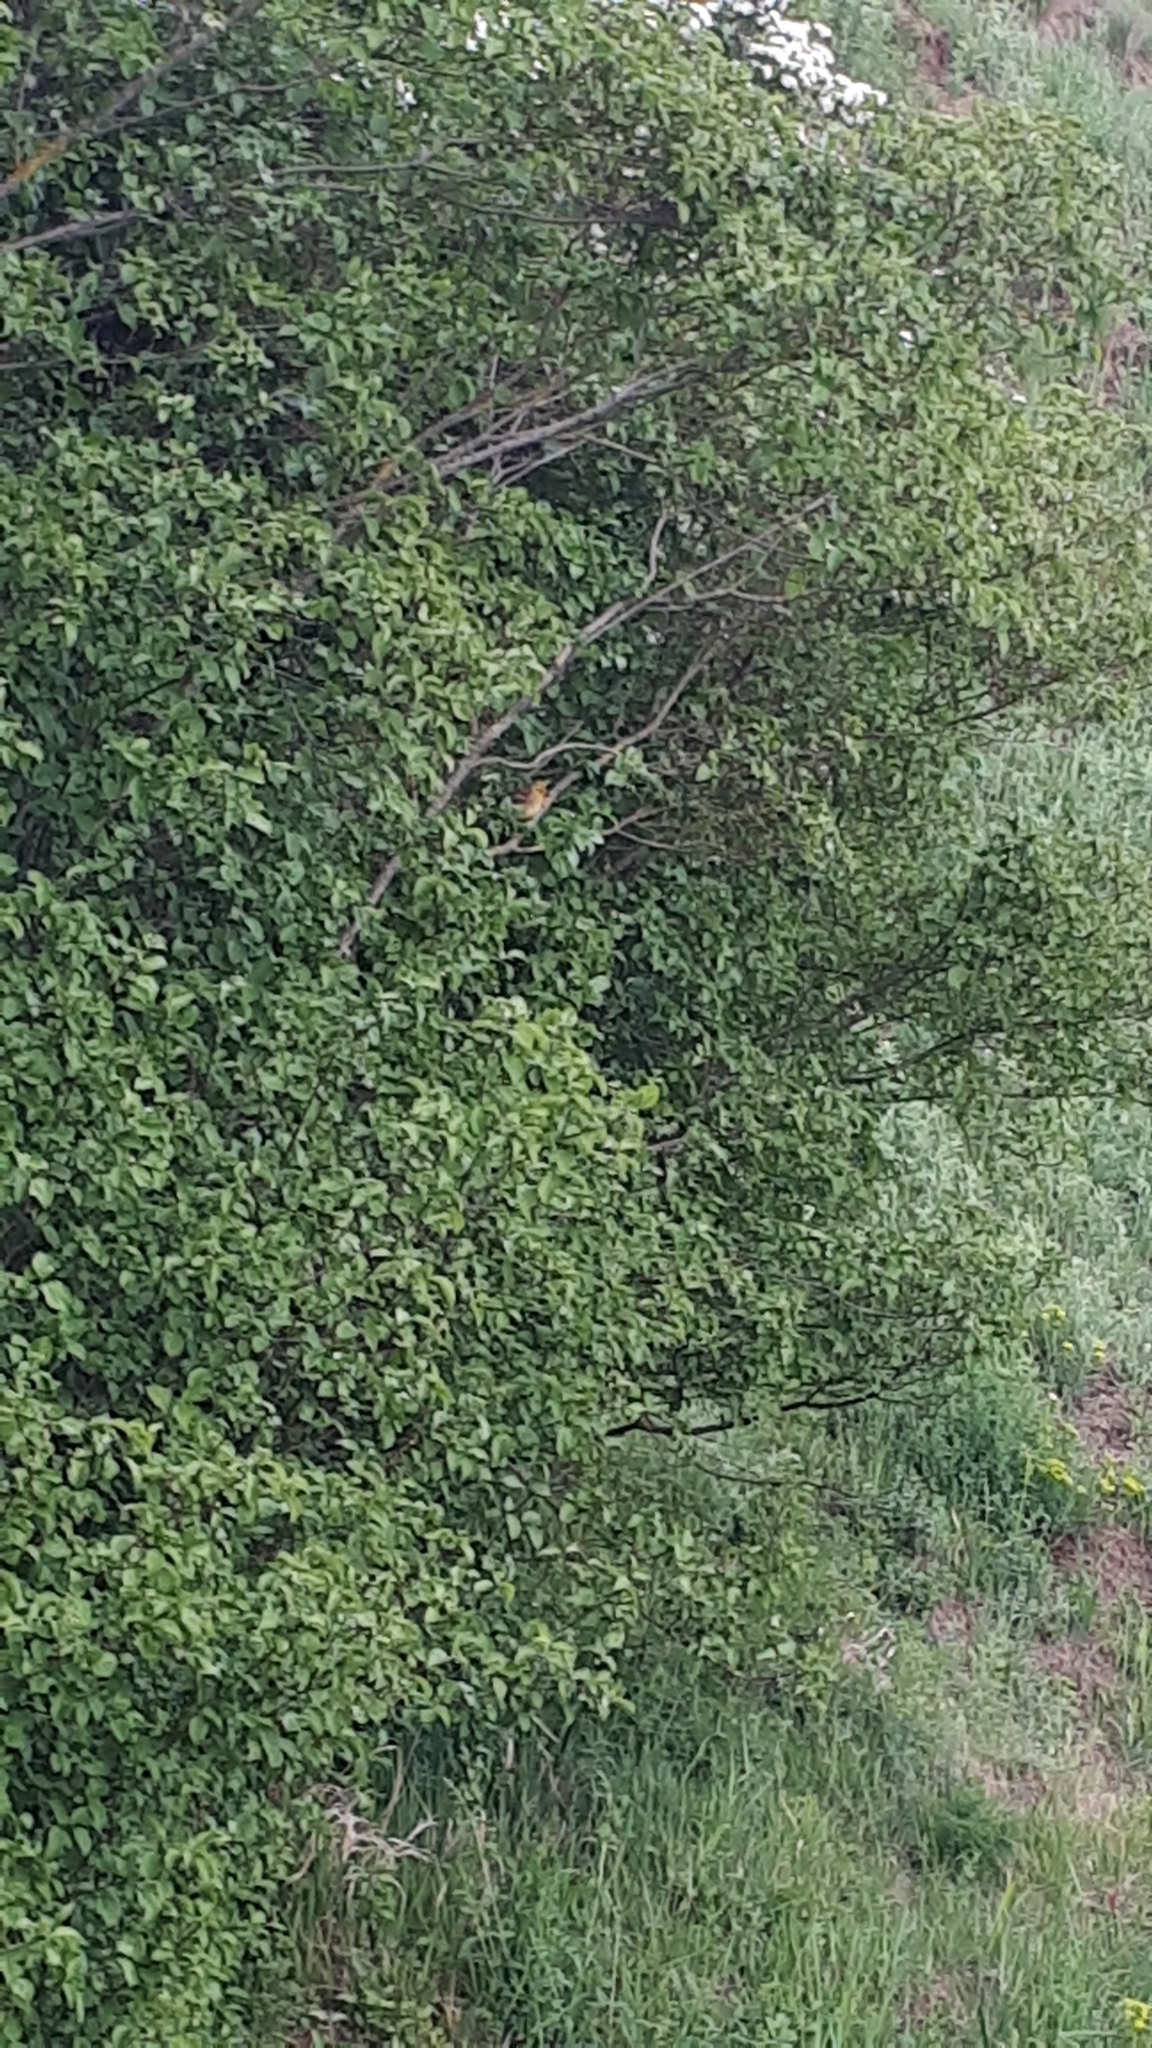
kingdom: Animalia
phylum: Chordata
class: Aves
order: Passeriformes
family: Emberizidae
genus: Emberiza
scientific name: Emberiza citrinella
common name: Yellowhammer
